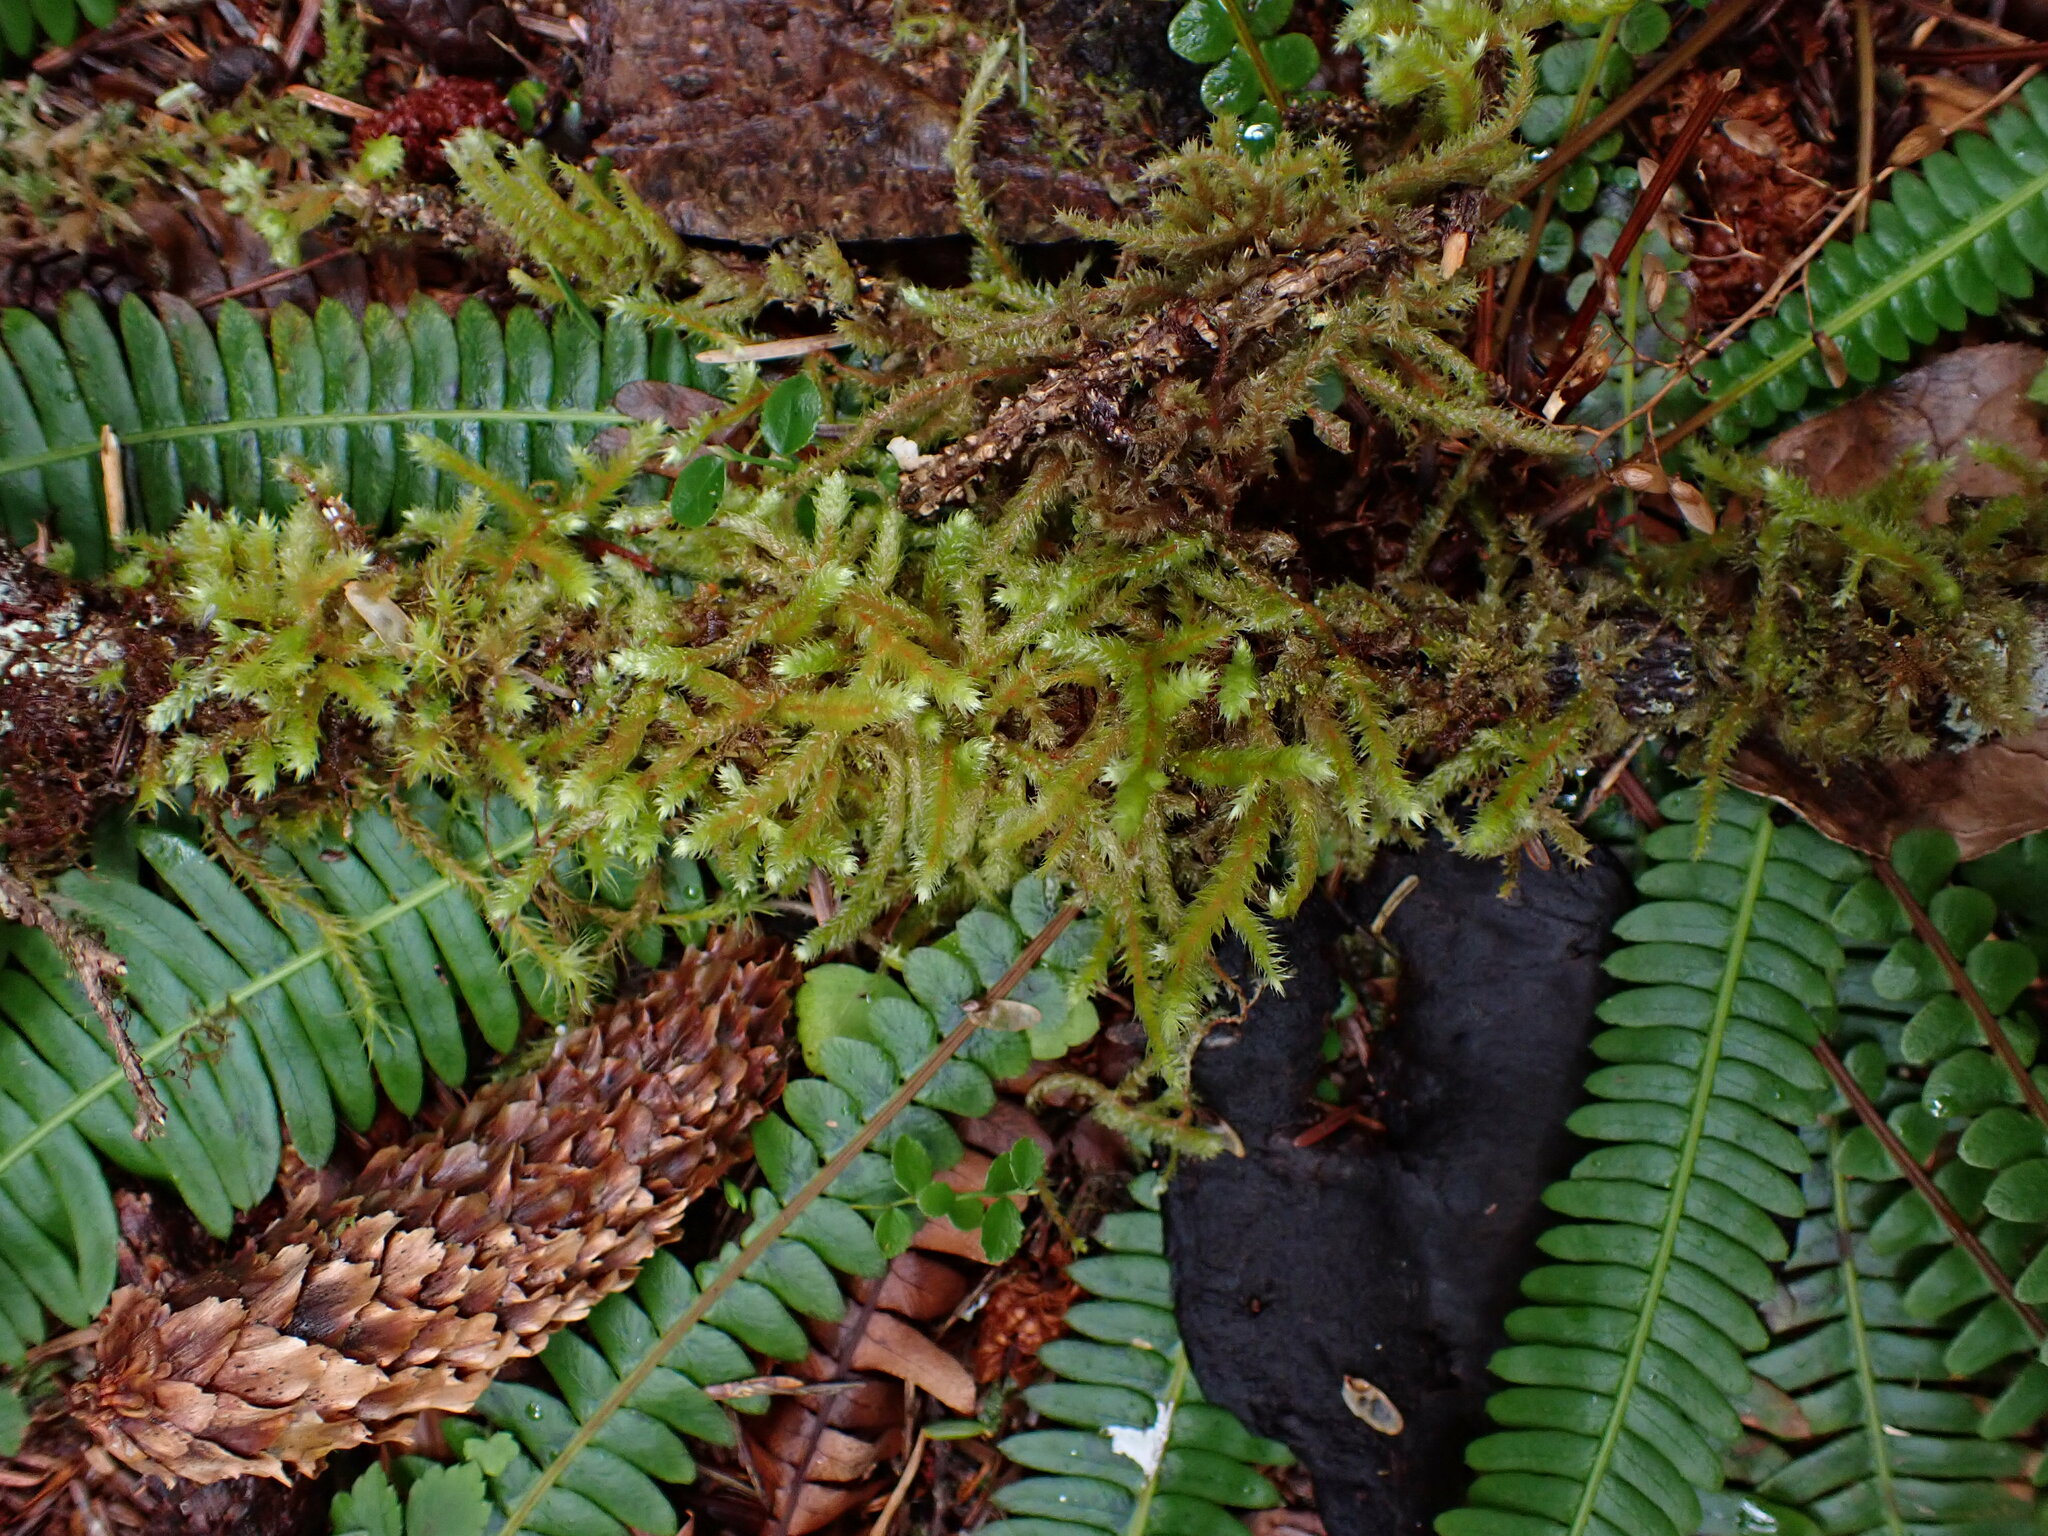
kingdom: Plantae
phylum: Tracheophyta
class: Polypodiopsida
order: Polypodiales
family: Blechnaceae
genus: Struthiopteris
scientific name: Struthiopteris spicant
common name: Deer fern
